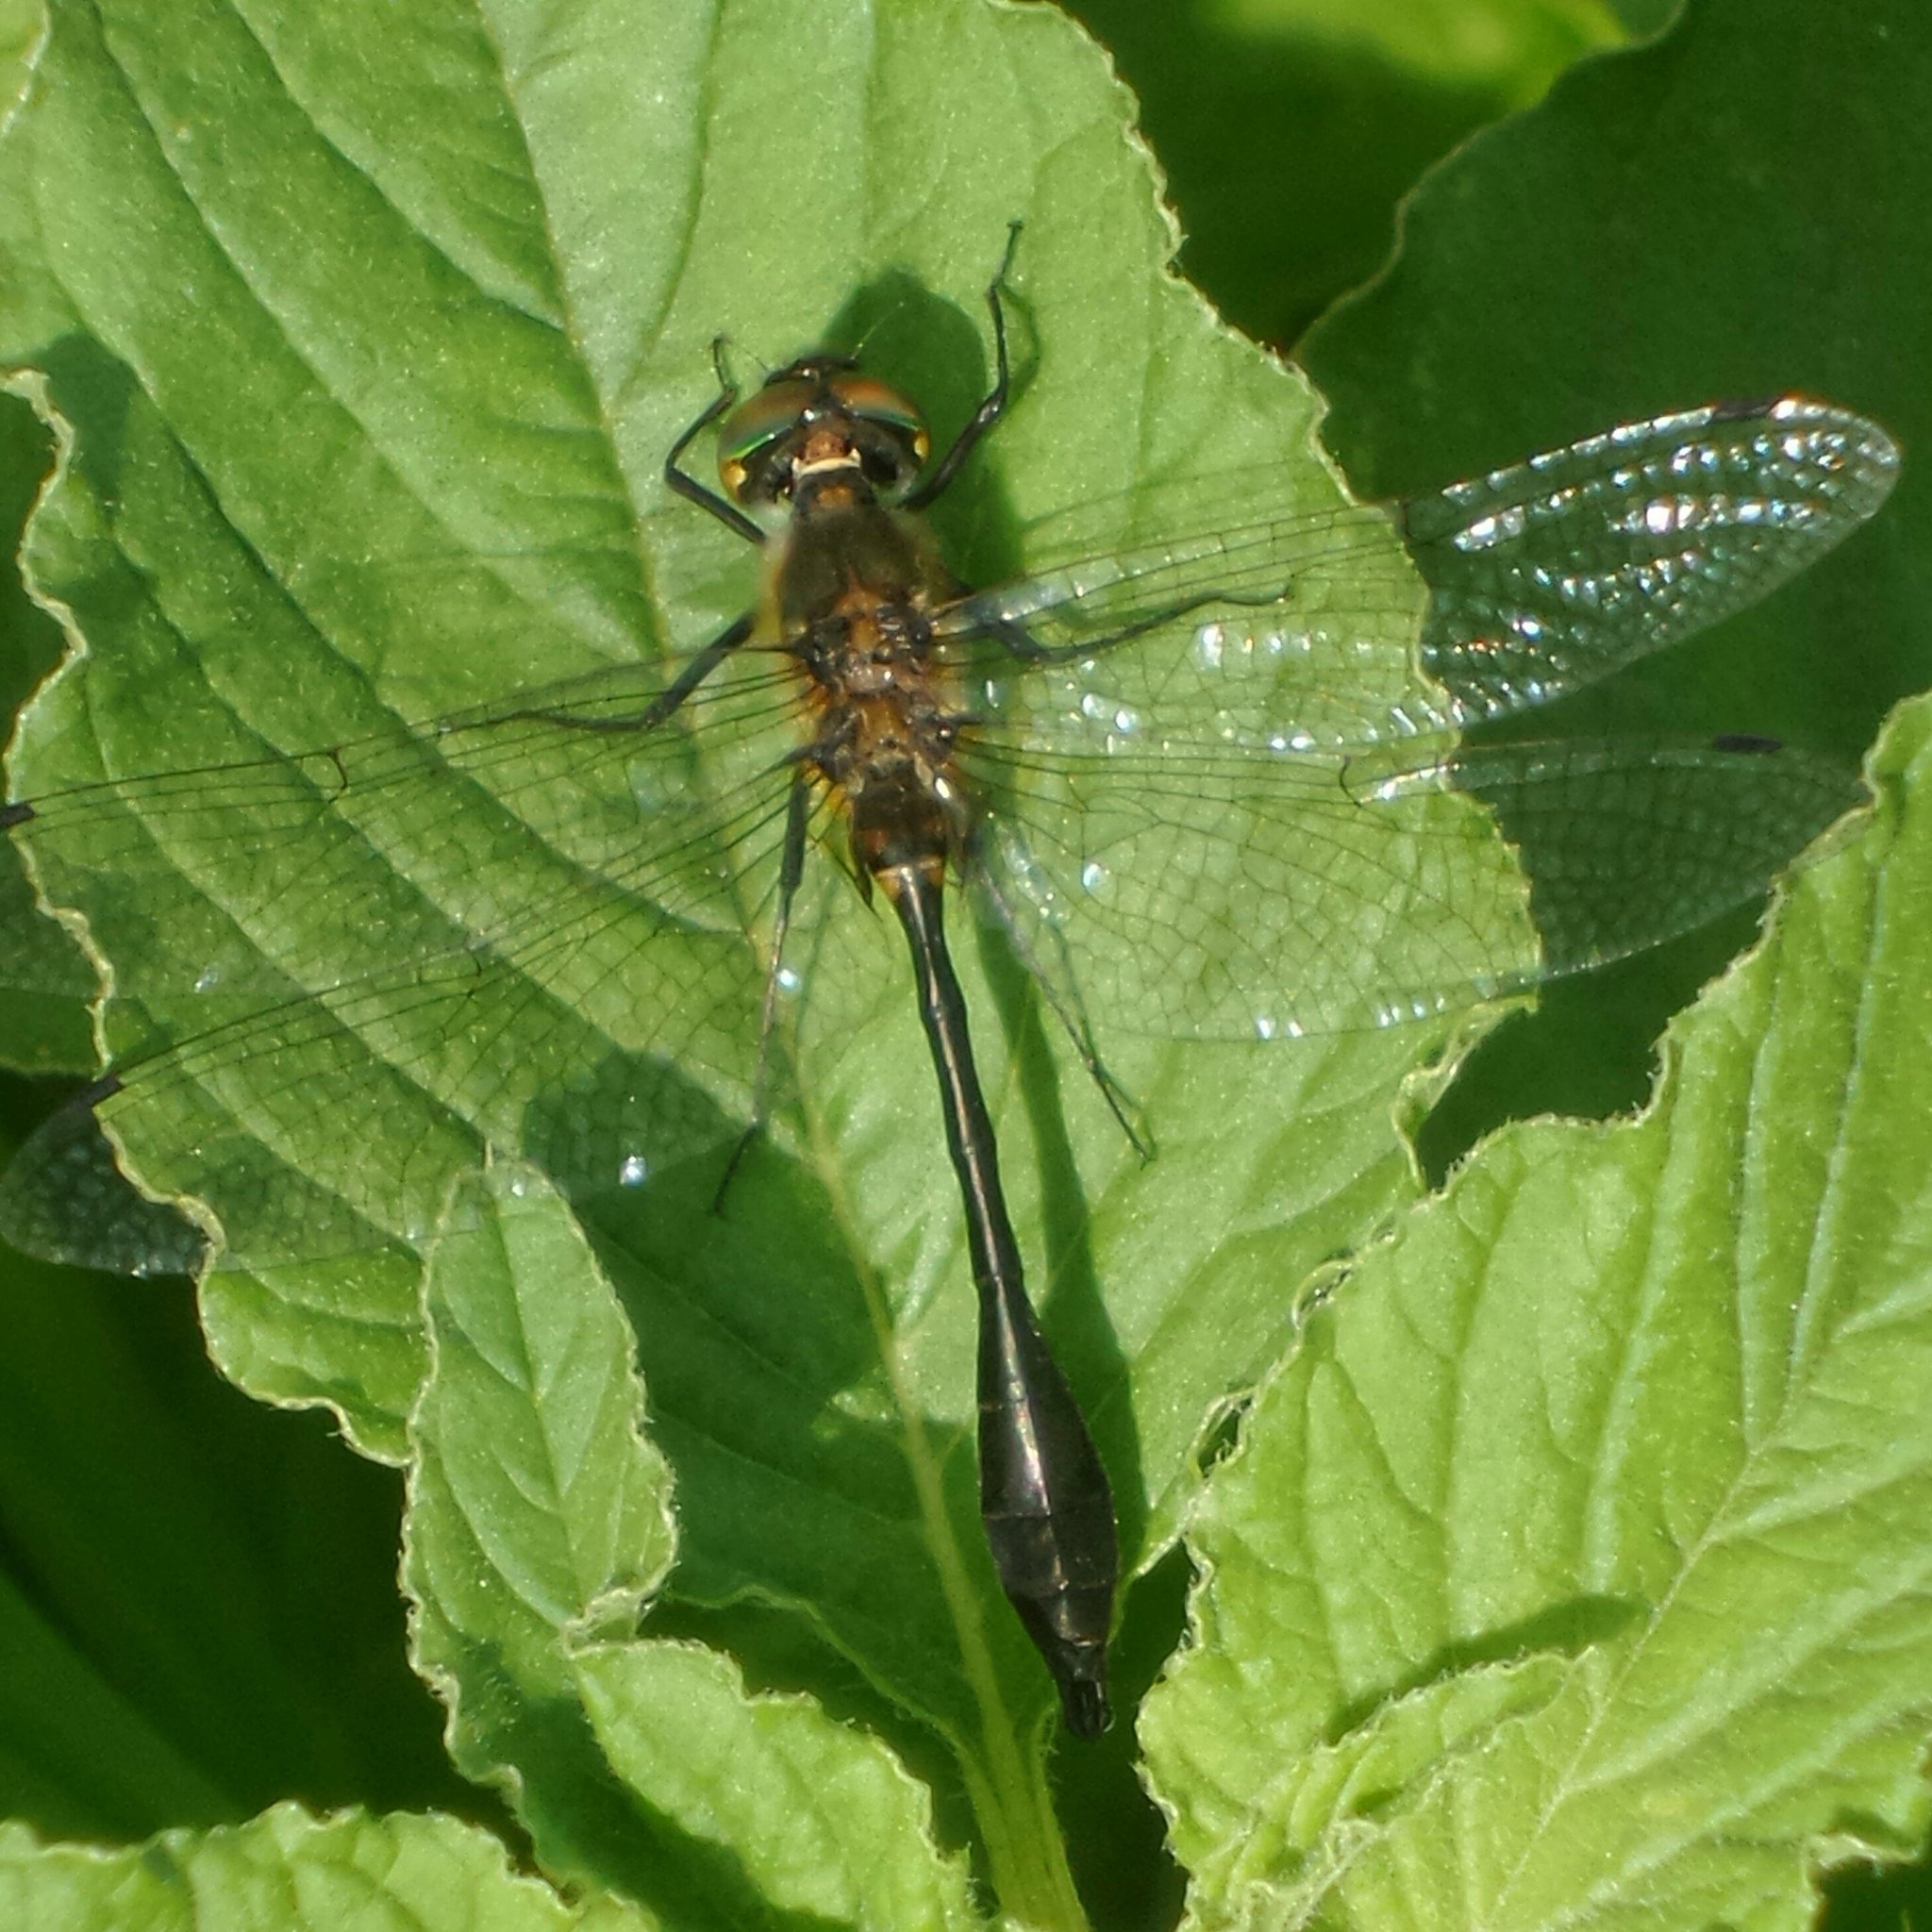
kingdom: Animalia
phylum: Arthropoda
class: Insecta
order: Odonata
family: Corduliidae
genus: Dorocordulia
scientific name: Dorocordulia libera
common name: Racket-tailed emerald
